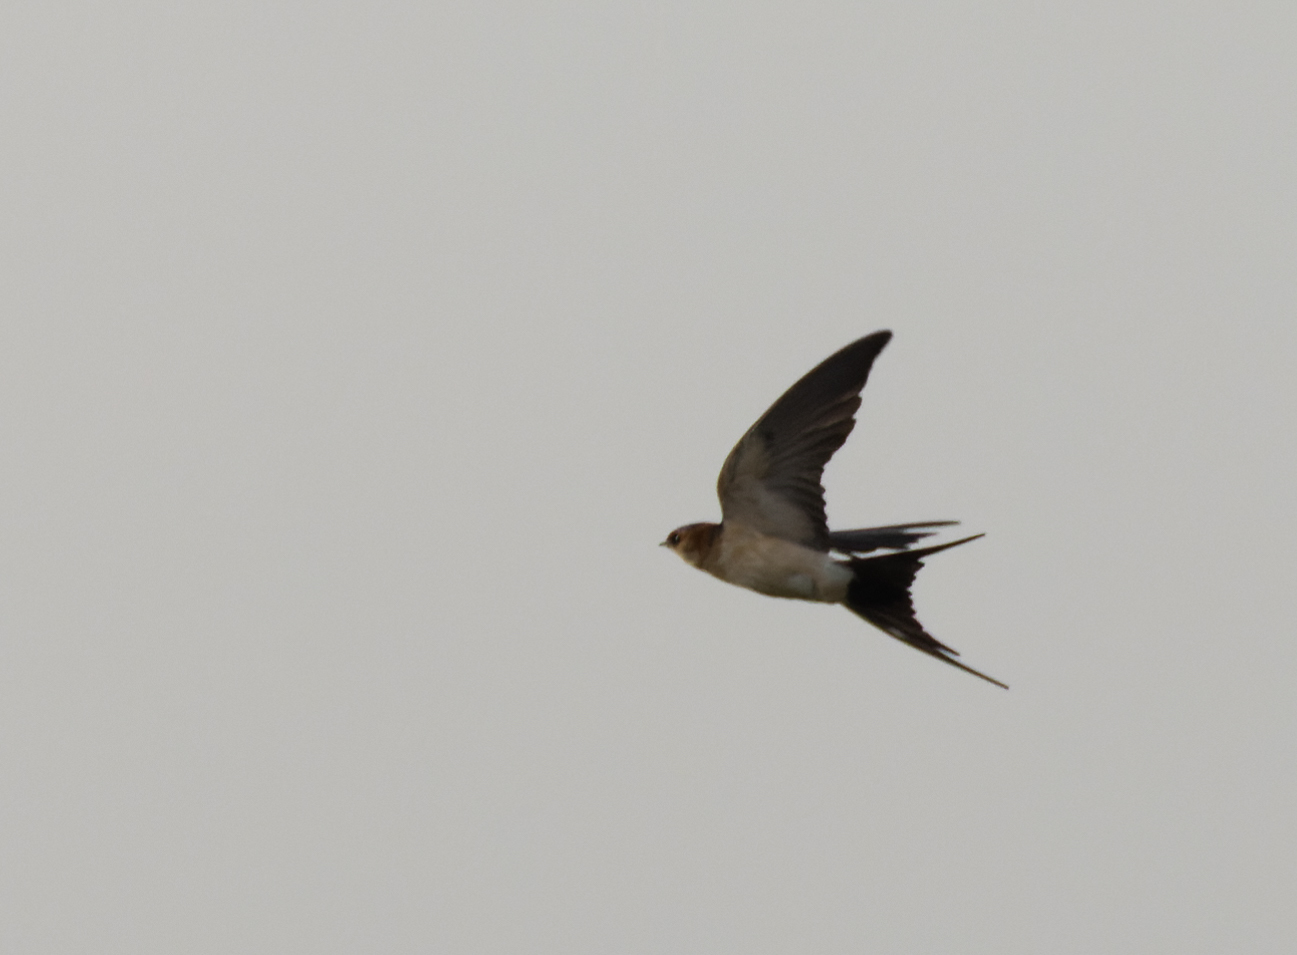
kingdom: Animalia
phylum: Chordata
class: Aves
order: Passeriformes
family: Hirundinidae
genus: Cecropis
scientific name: Cecropis daurica
